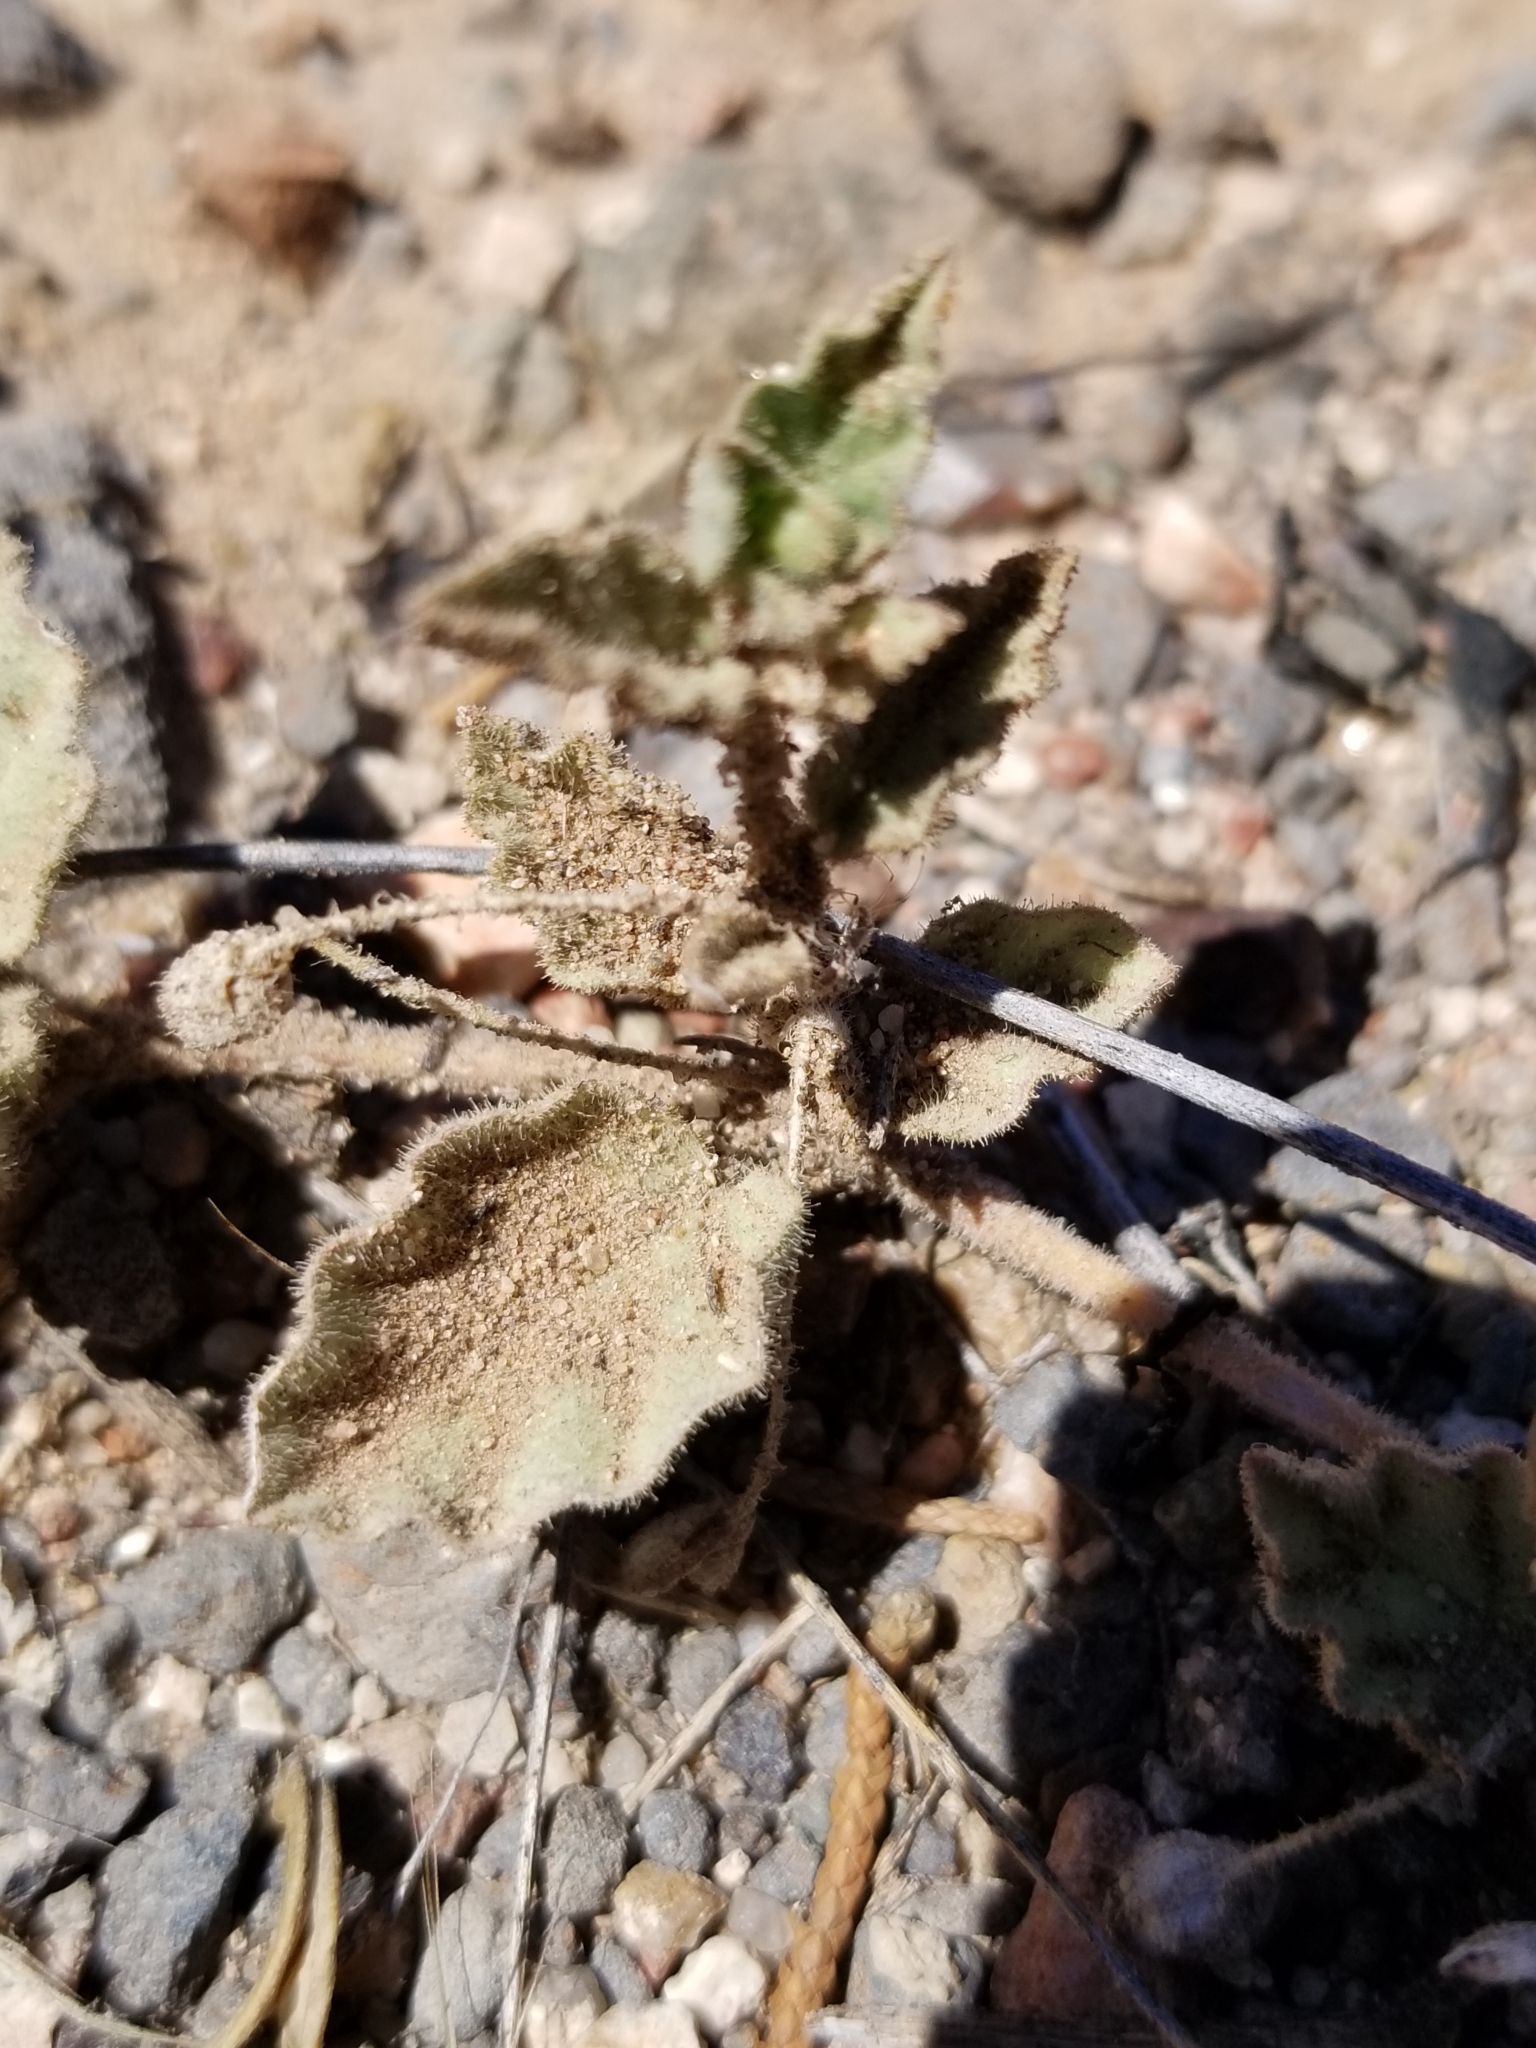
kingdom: Plantae
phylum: Tracheophyta
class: Magnoliopsida
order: Caryophyllales
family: Nyctaginaceae
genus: Allionia
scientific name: Allionia incarnata
